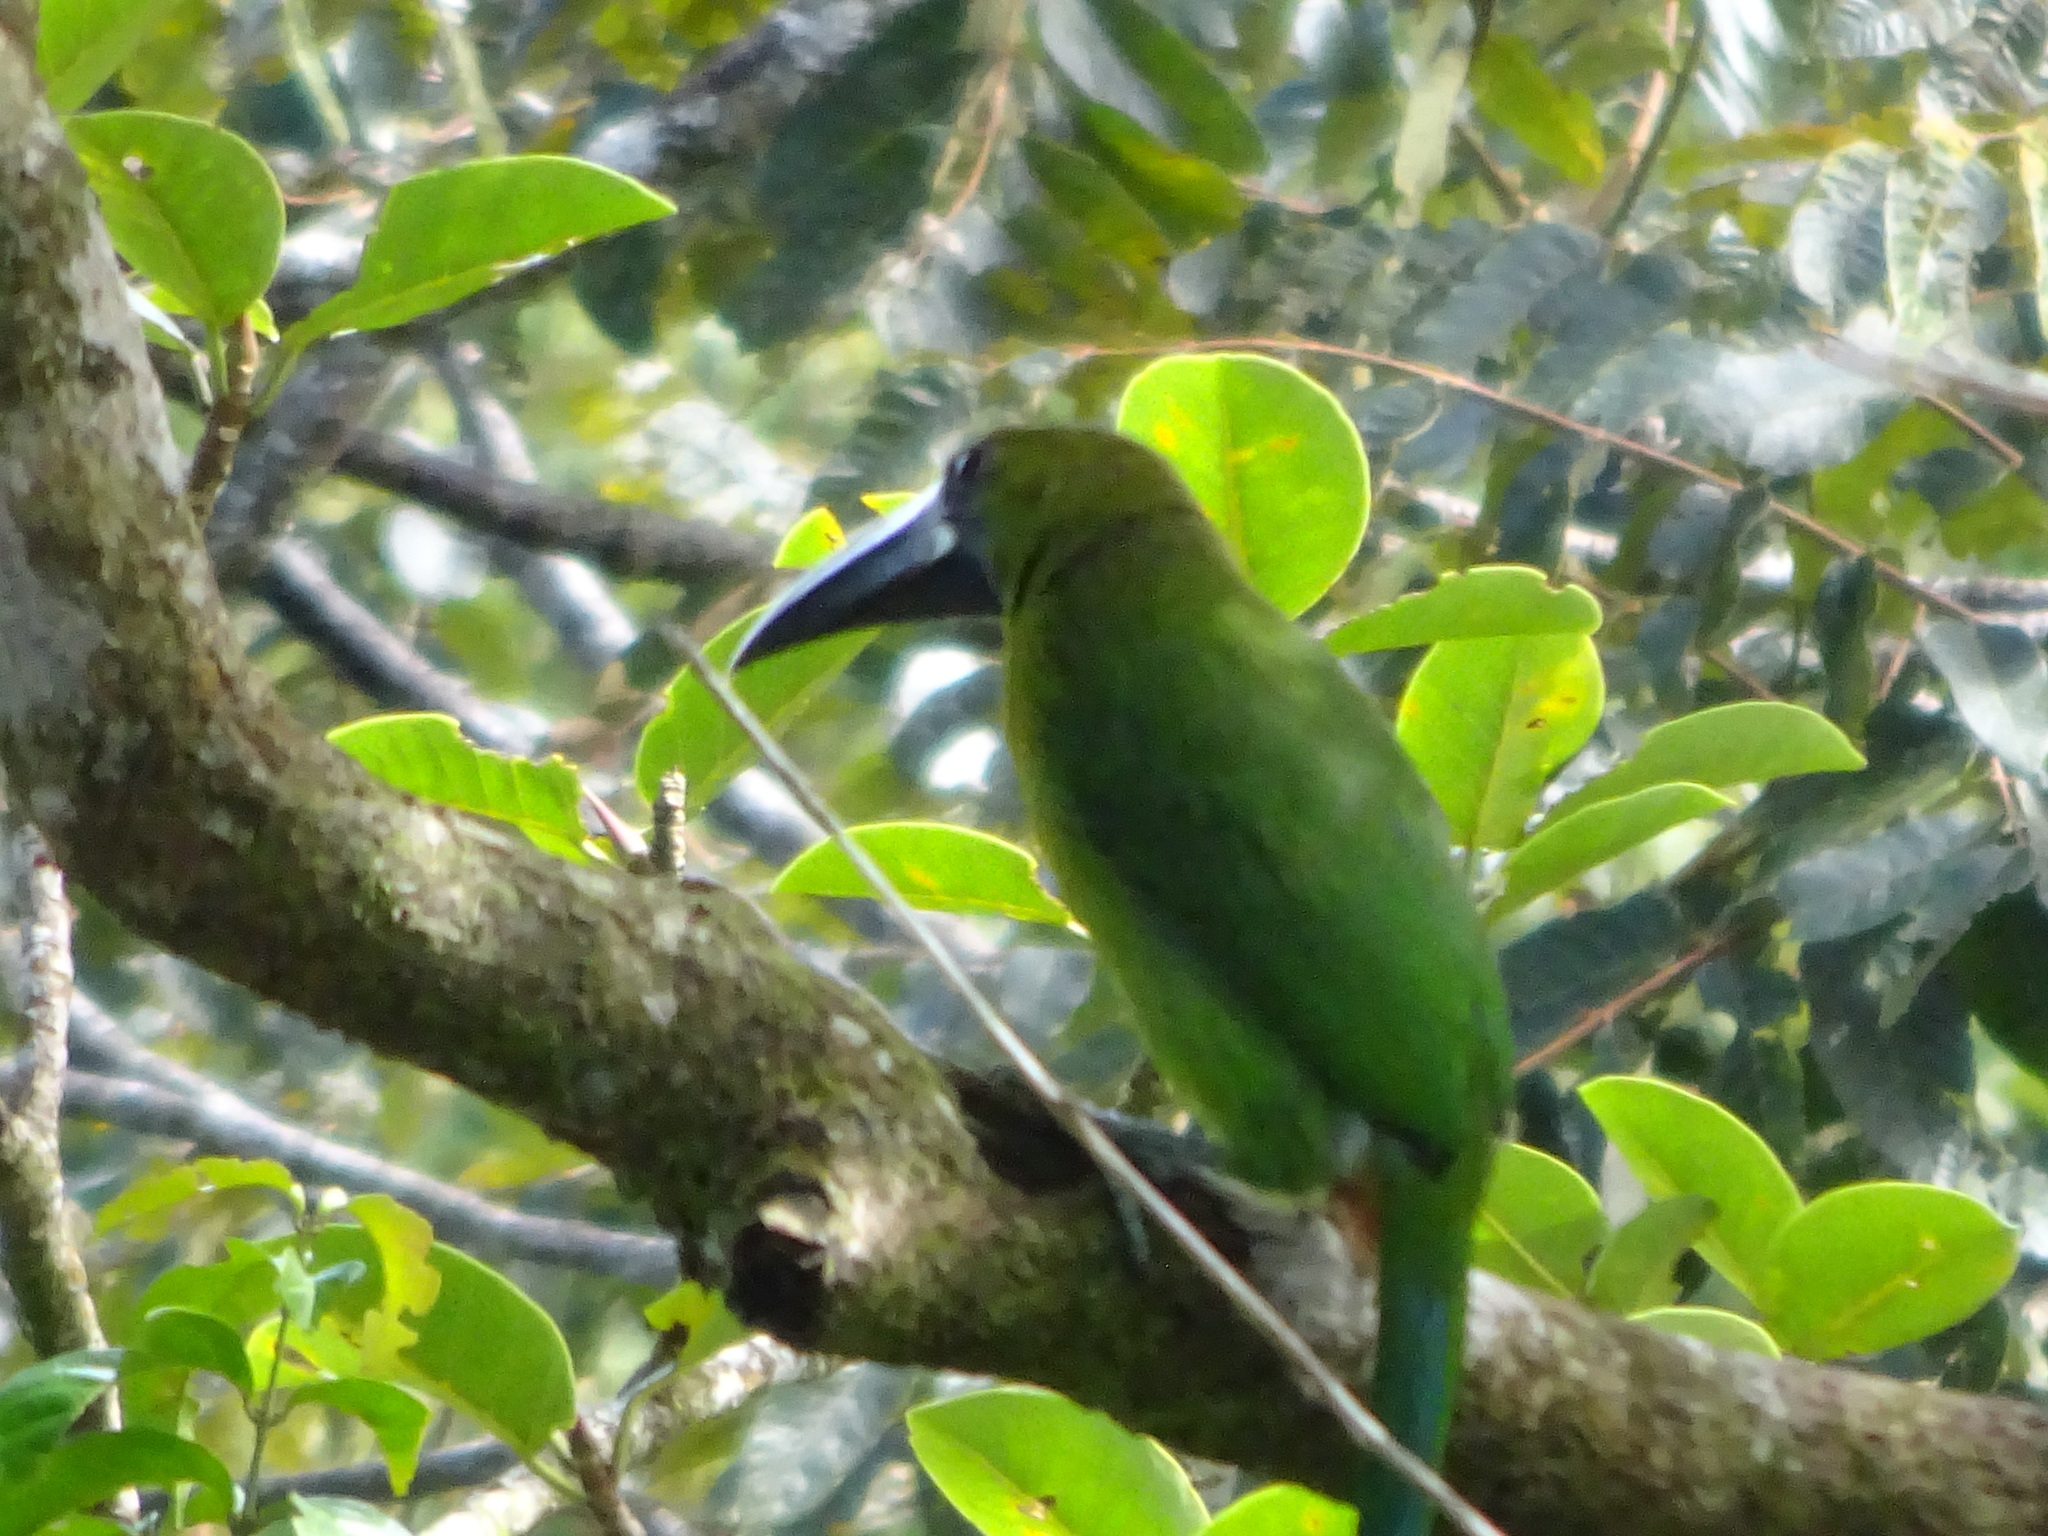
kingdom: Animalia
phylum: Chordata
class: Aves
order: Piciformes
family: Ramphastidae
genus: Aulacorhynchus
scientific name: Aulacorhynchus prasinus
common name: Emerald toucanet
